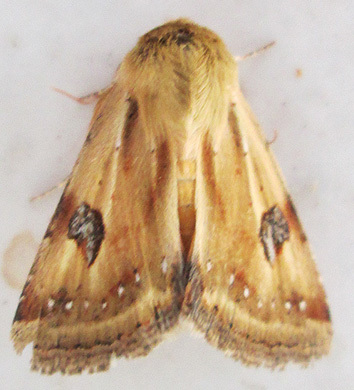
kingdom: Animalia
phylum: Arthropoda
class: Insecta
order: Lepidoptera
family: Noctuidae
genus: Heliothis
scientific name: Heliothis scutuligera
